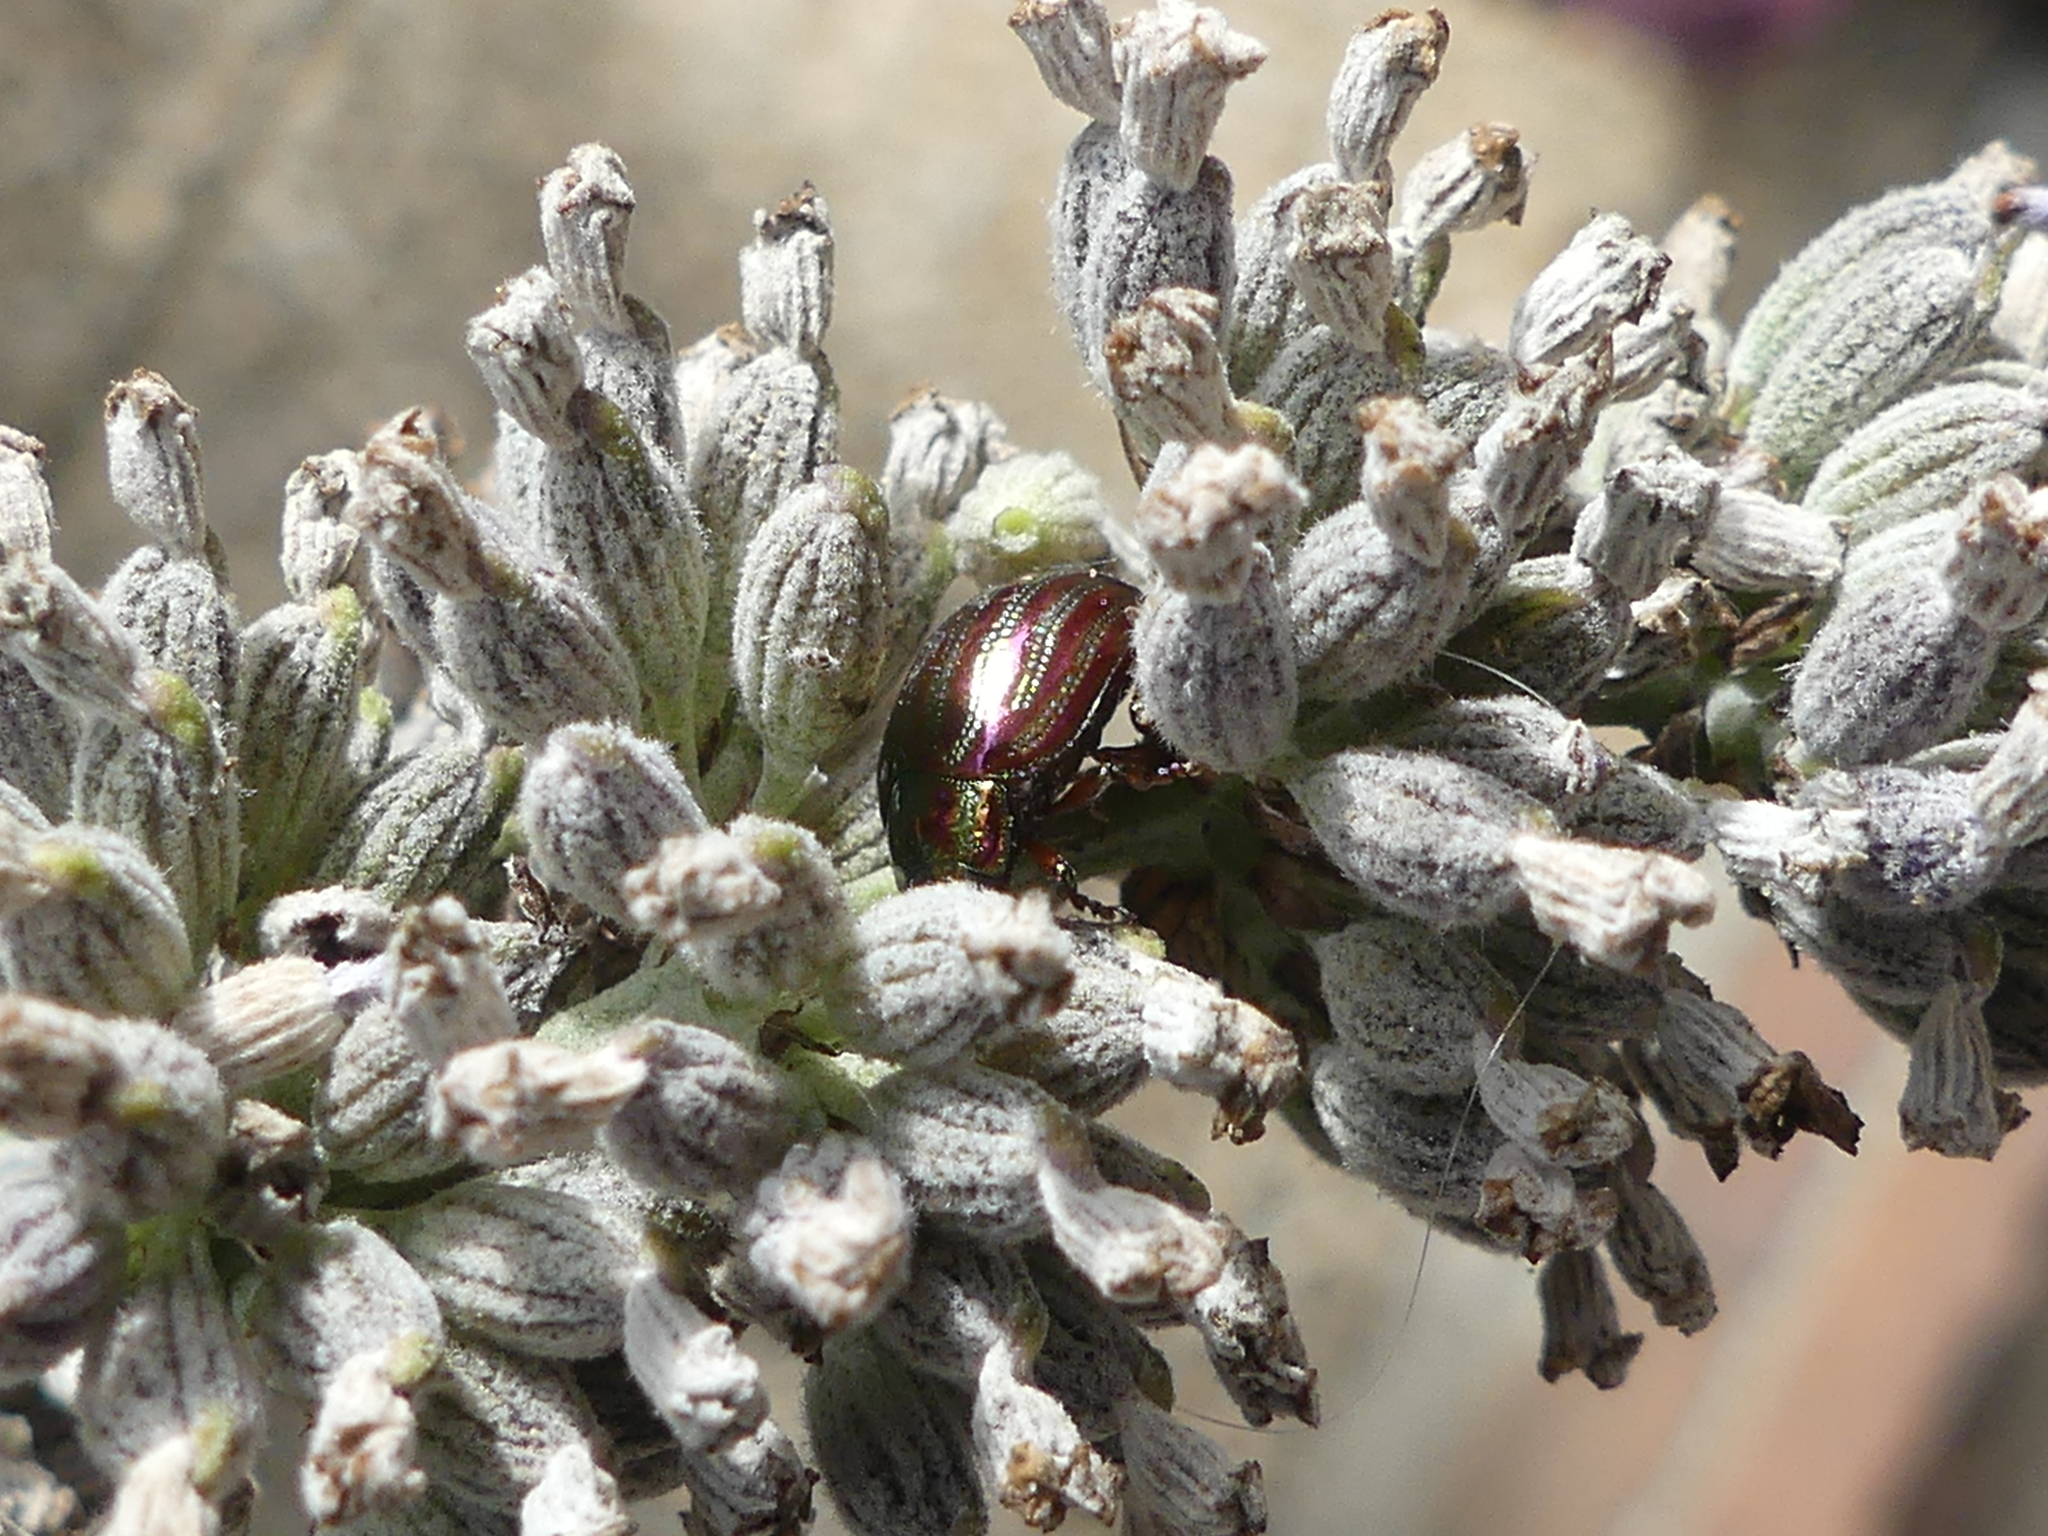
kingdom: Animalia
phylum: Arthropoda
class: Insecta
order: Coleoptera
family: Chrysomelidae
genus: Chrysolina
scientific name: Chrysolina americana
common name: Rosemary beetle
